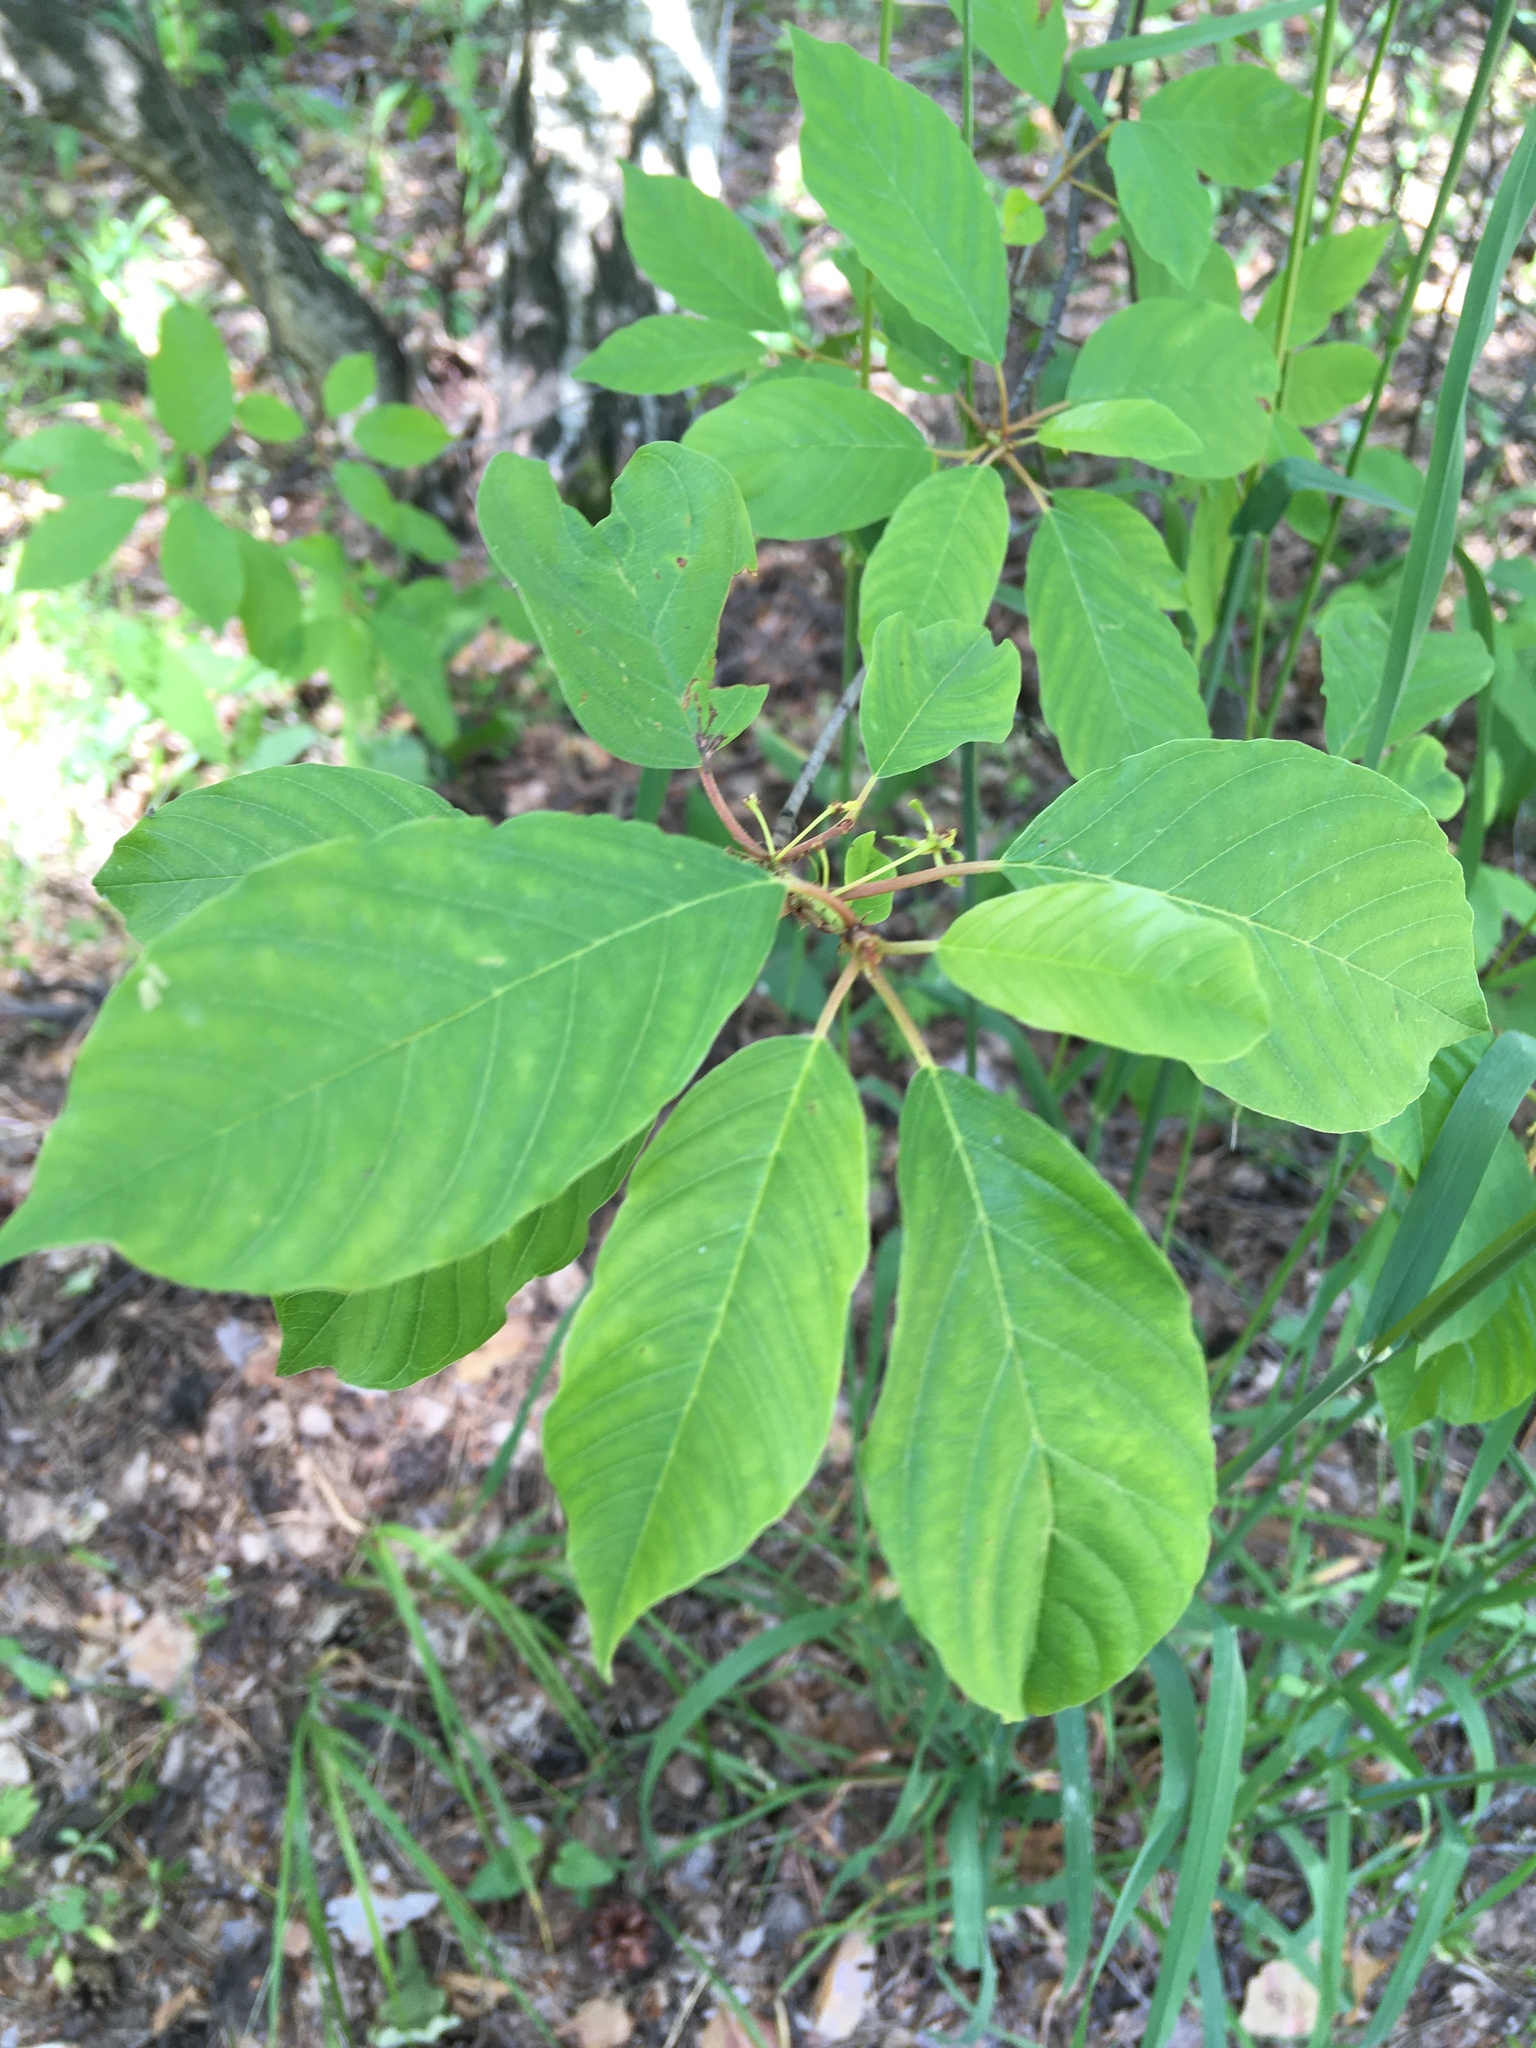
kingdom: Plantae
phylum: Tracheophyta
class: Magnoliopsida
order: Rosales
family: Rhamnaceae
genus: Frangula
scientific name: Frangula alnus
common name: Alder buckthorn
